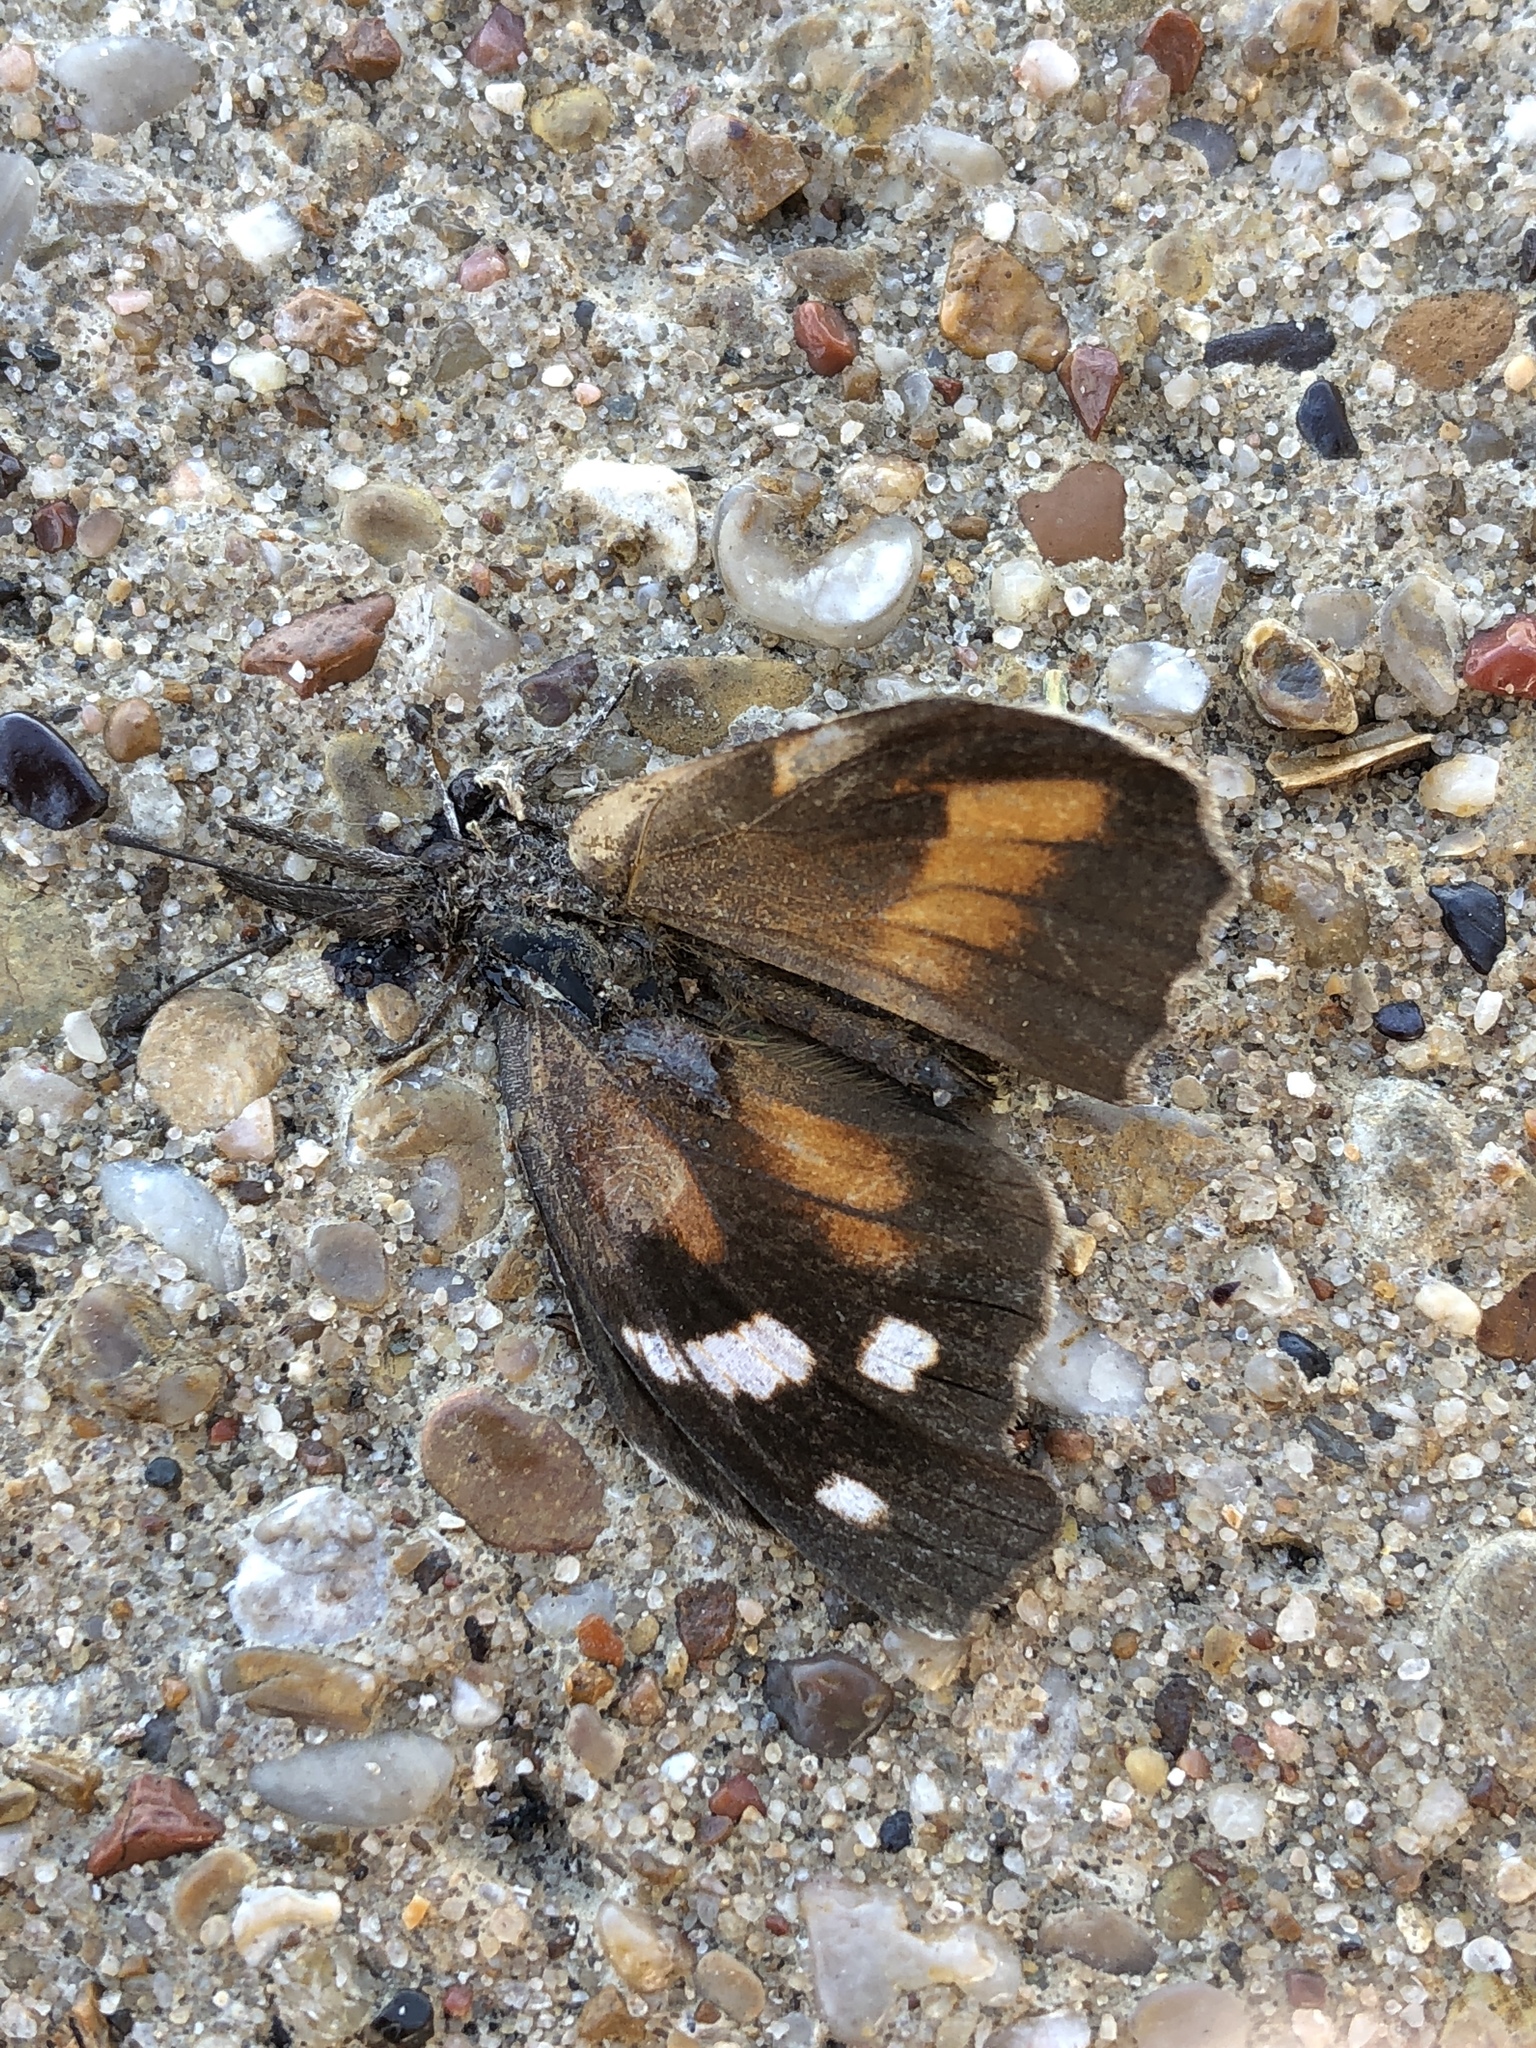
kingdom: Animalia
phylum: Arthropoda
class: Insecta
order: Lepidoptera
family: Nymphalidae
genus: Libytheana
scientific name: Libytheana carinenta
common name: American snout
